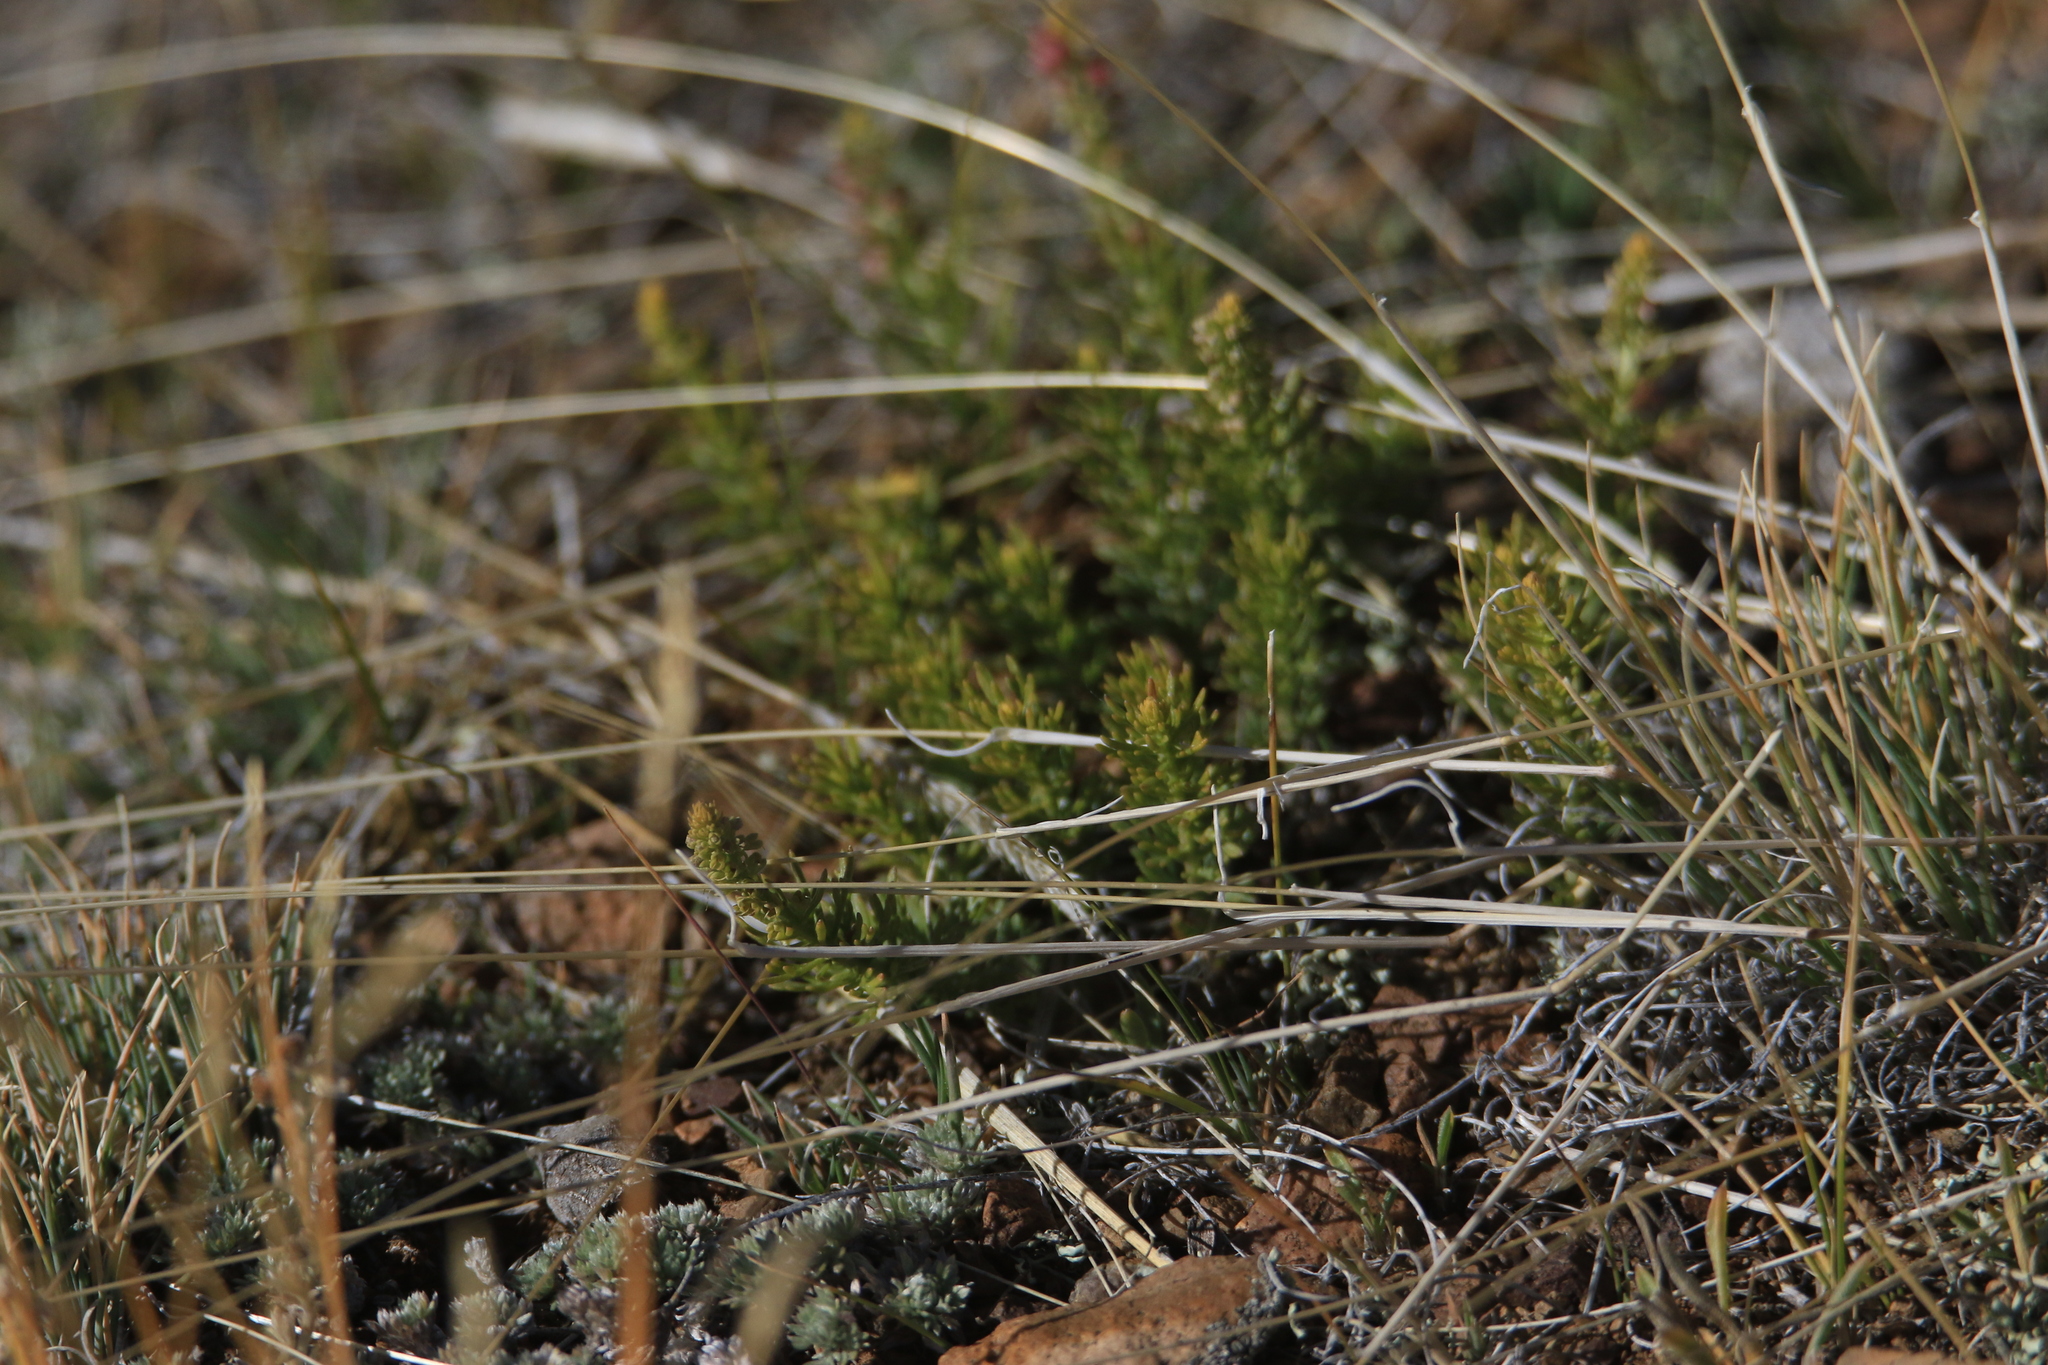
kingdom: Plantae
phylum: Tracheophyta
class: Magnoliopsida
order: Lamiales
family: Plantaginaceae
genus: Veronica
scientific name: Veronica pinnata
